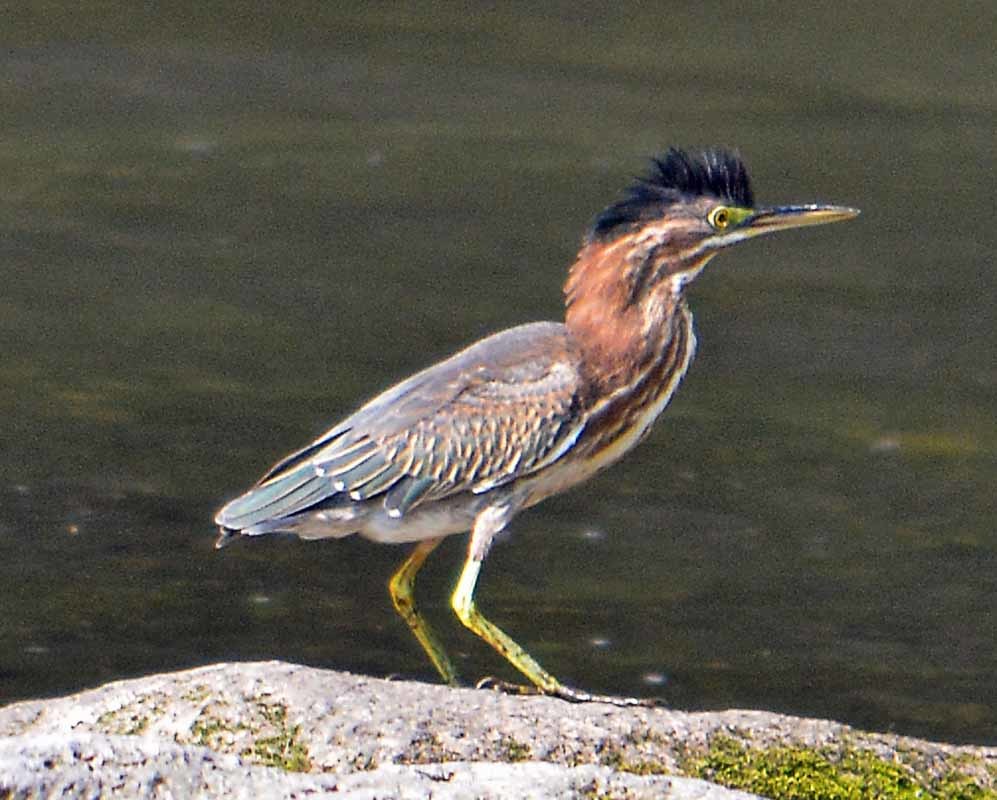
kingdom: Animalia
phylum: Chordata
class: Aves
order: Pelecaniformes
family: Ardeidae
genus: Butorides
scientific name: Butorides virescens
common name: Green heron
